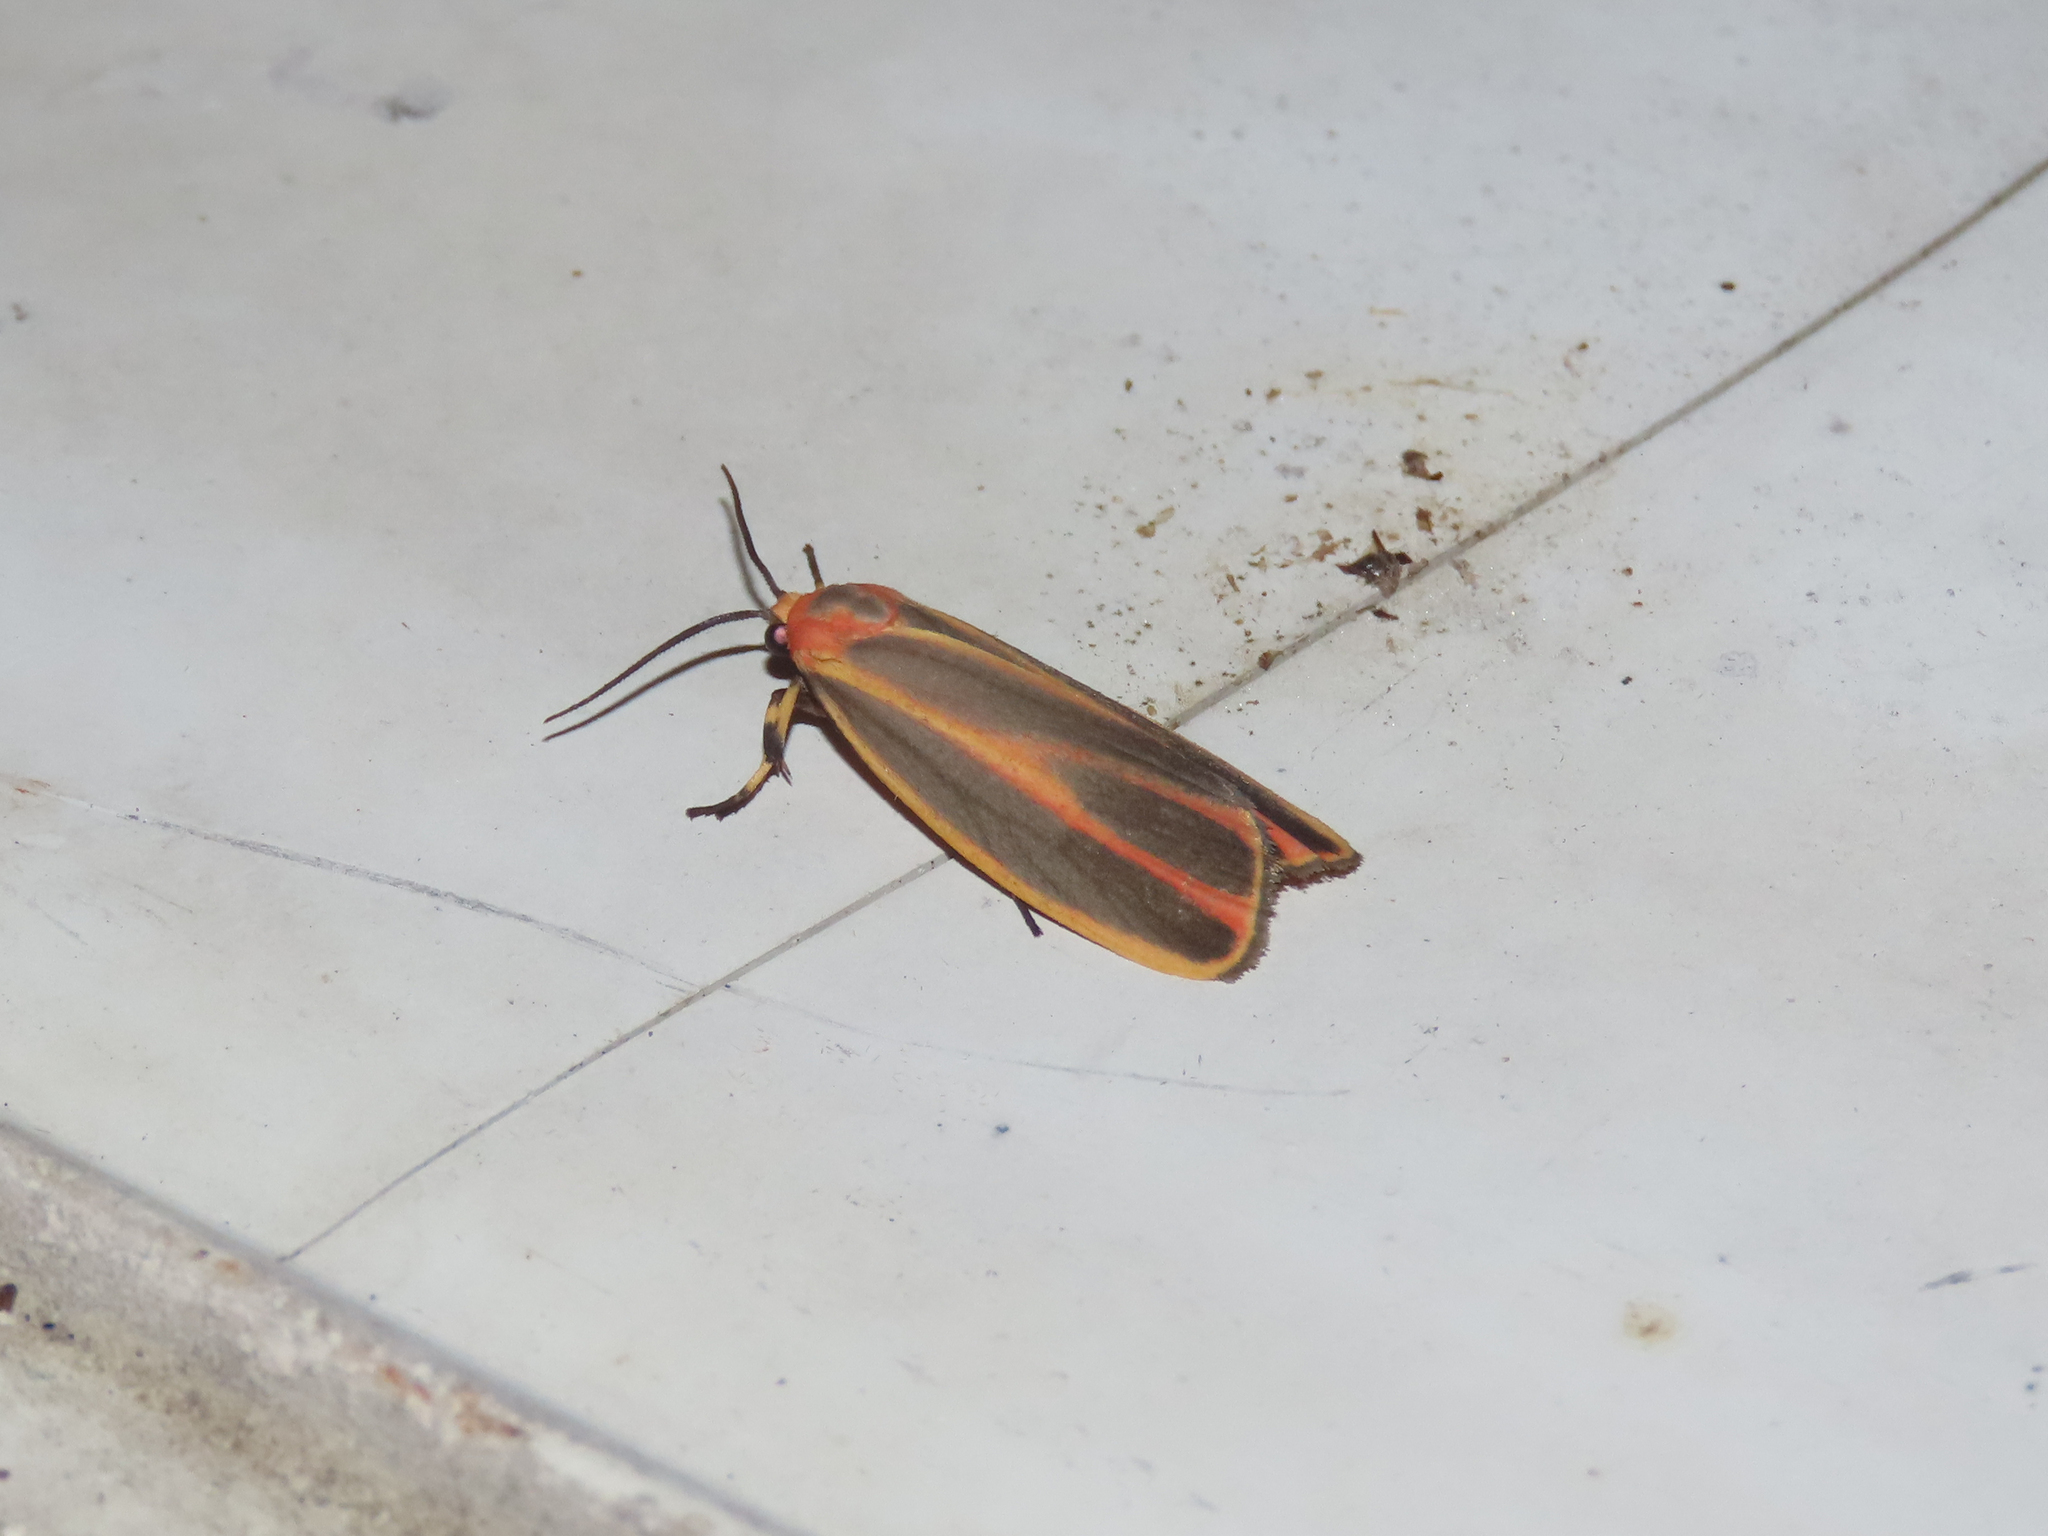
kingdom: Animalia
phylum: Arthropoda
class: Insecta
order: Lepidoptera
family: Erebidae
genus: Hypoprepia
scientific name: Hypoprepia fucosa
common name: Painted lichen moth
